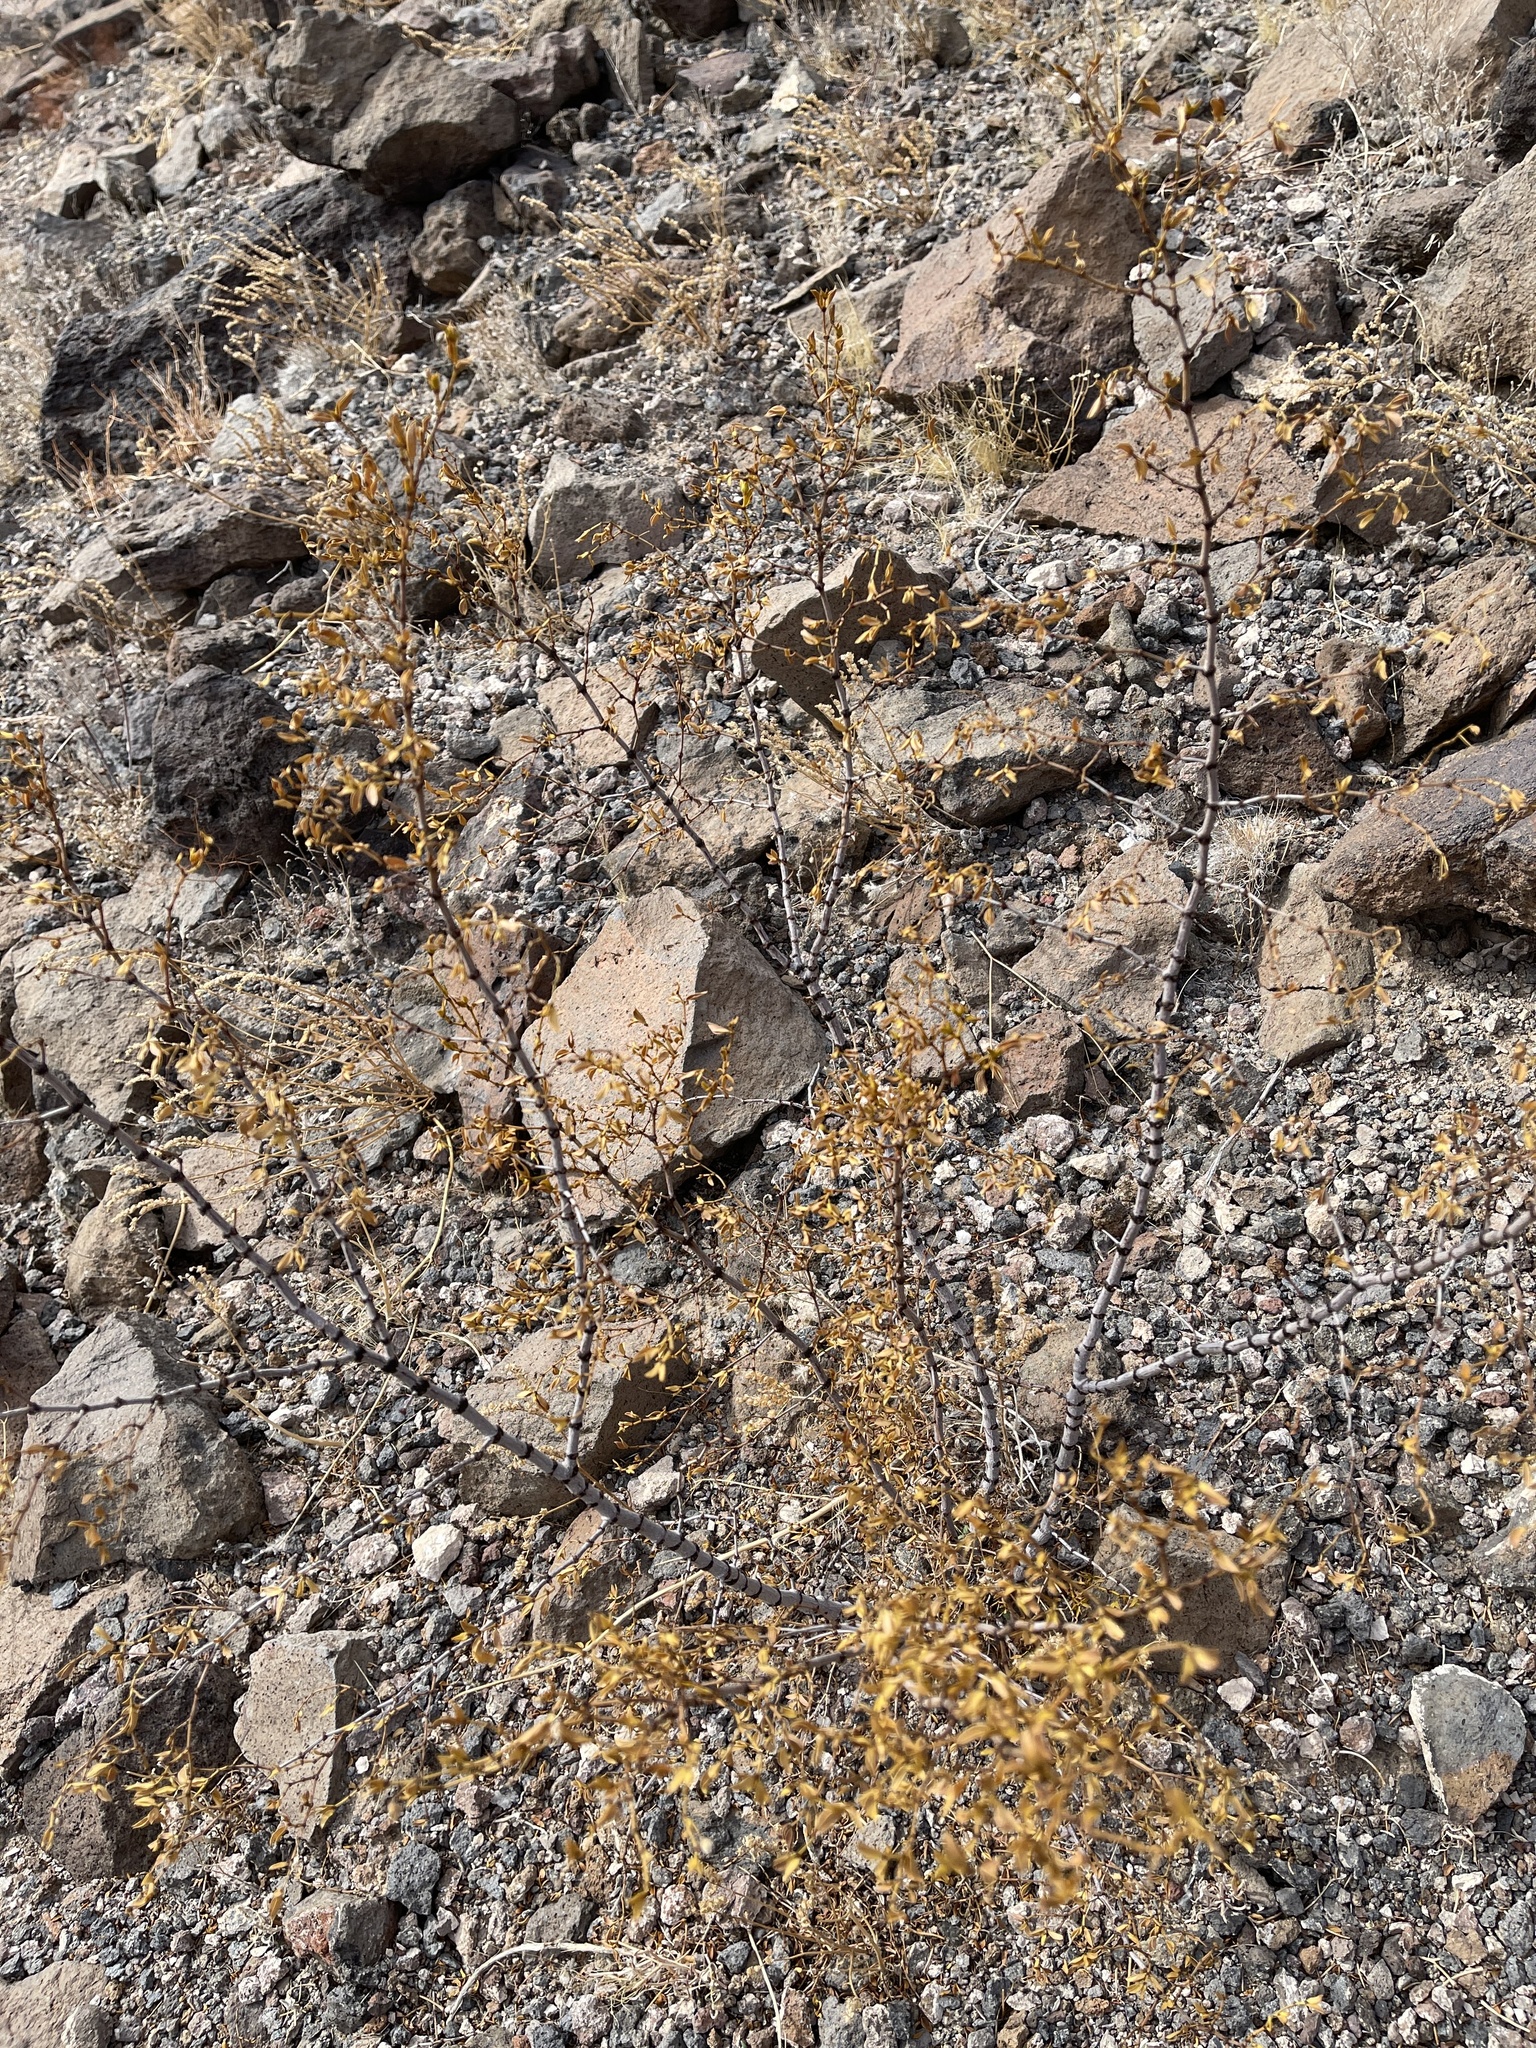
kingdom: Plantae
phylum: Tracheophyta
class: Magnoliopsida
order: Zygophyllales
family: Zygophyllaceae
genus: Larrea
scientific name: Larrea tridentata
